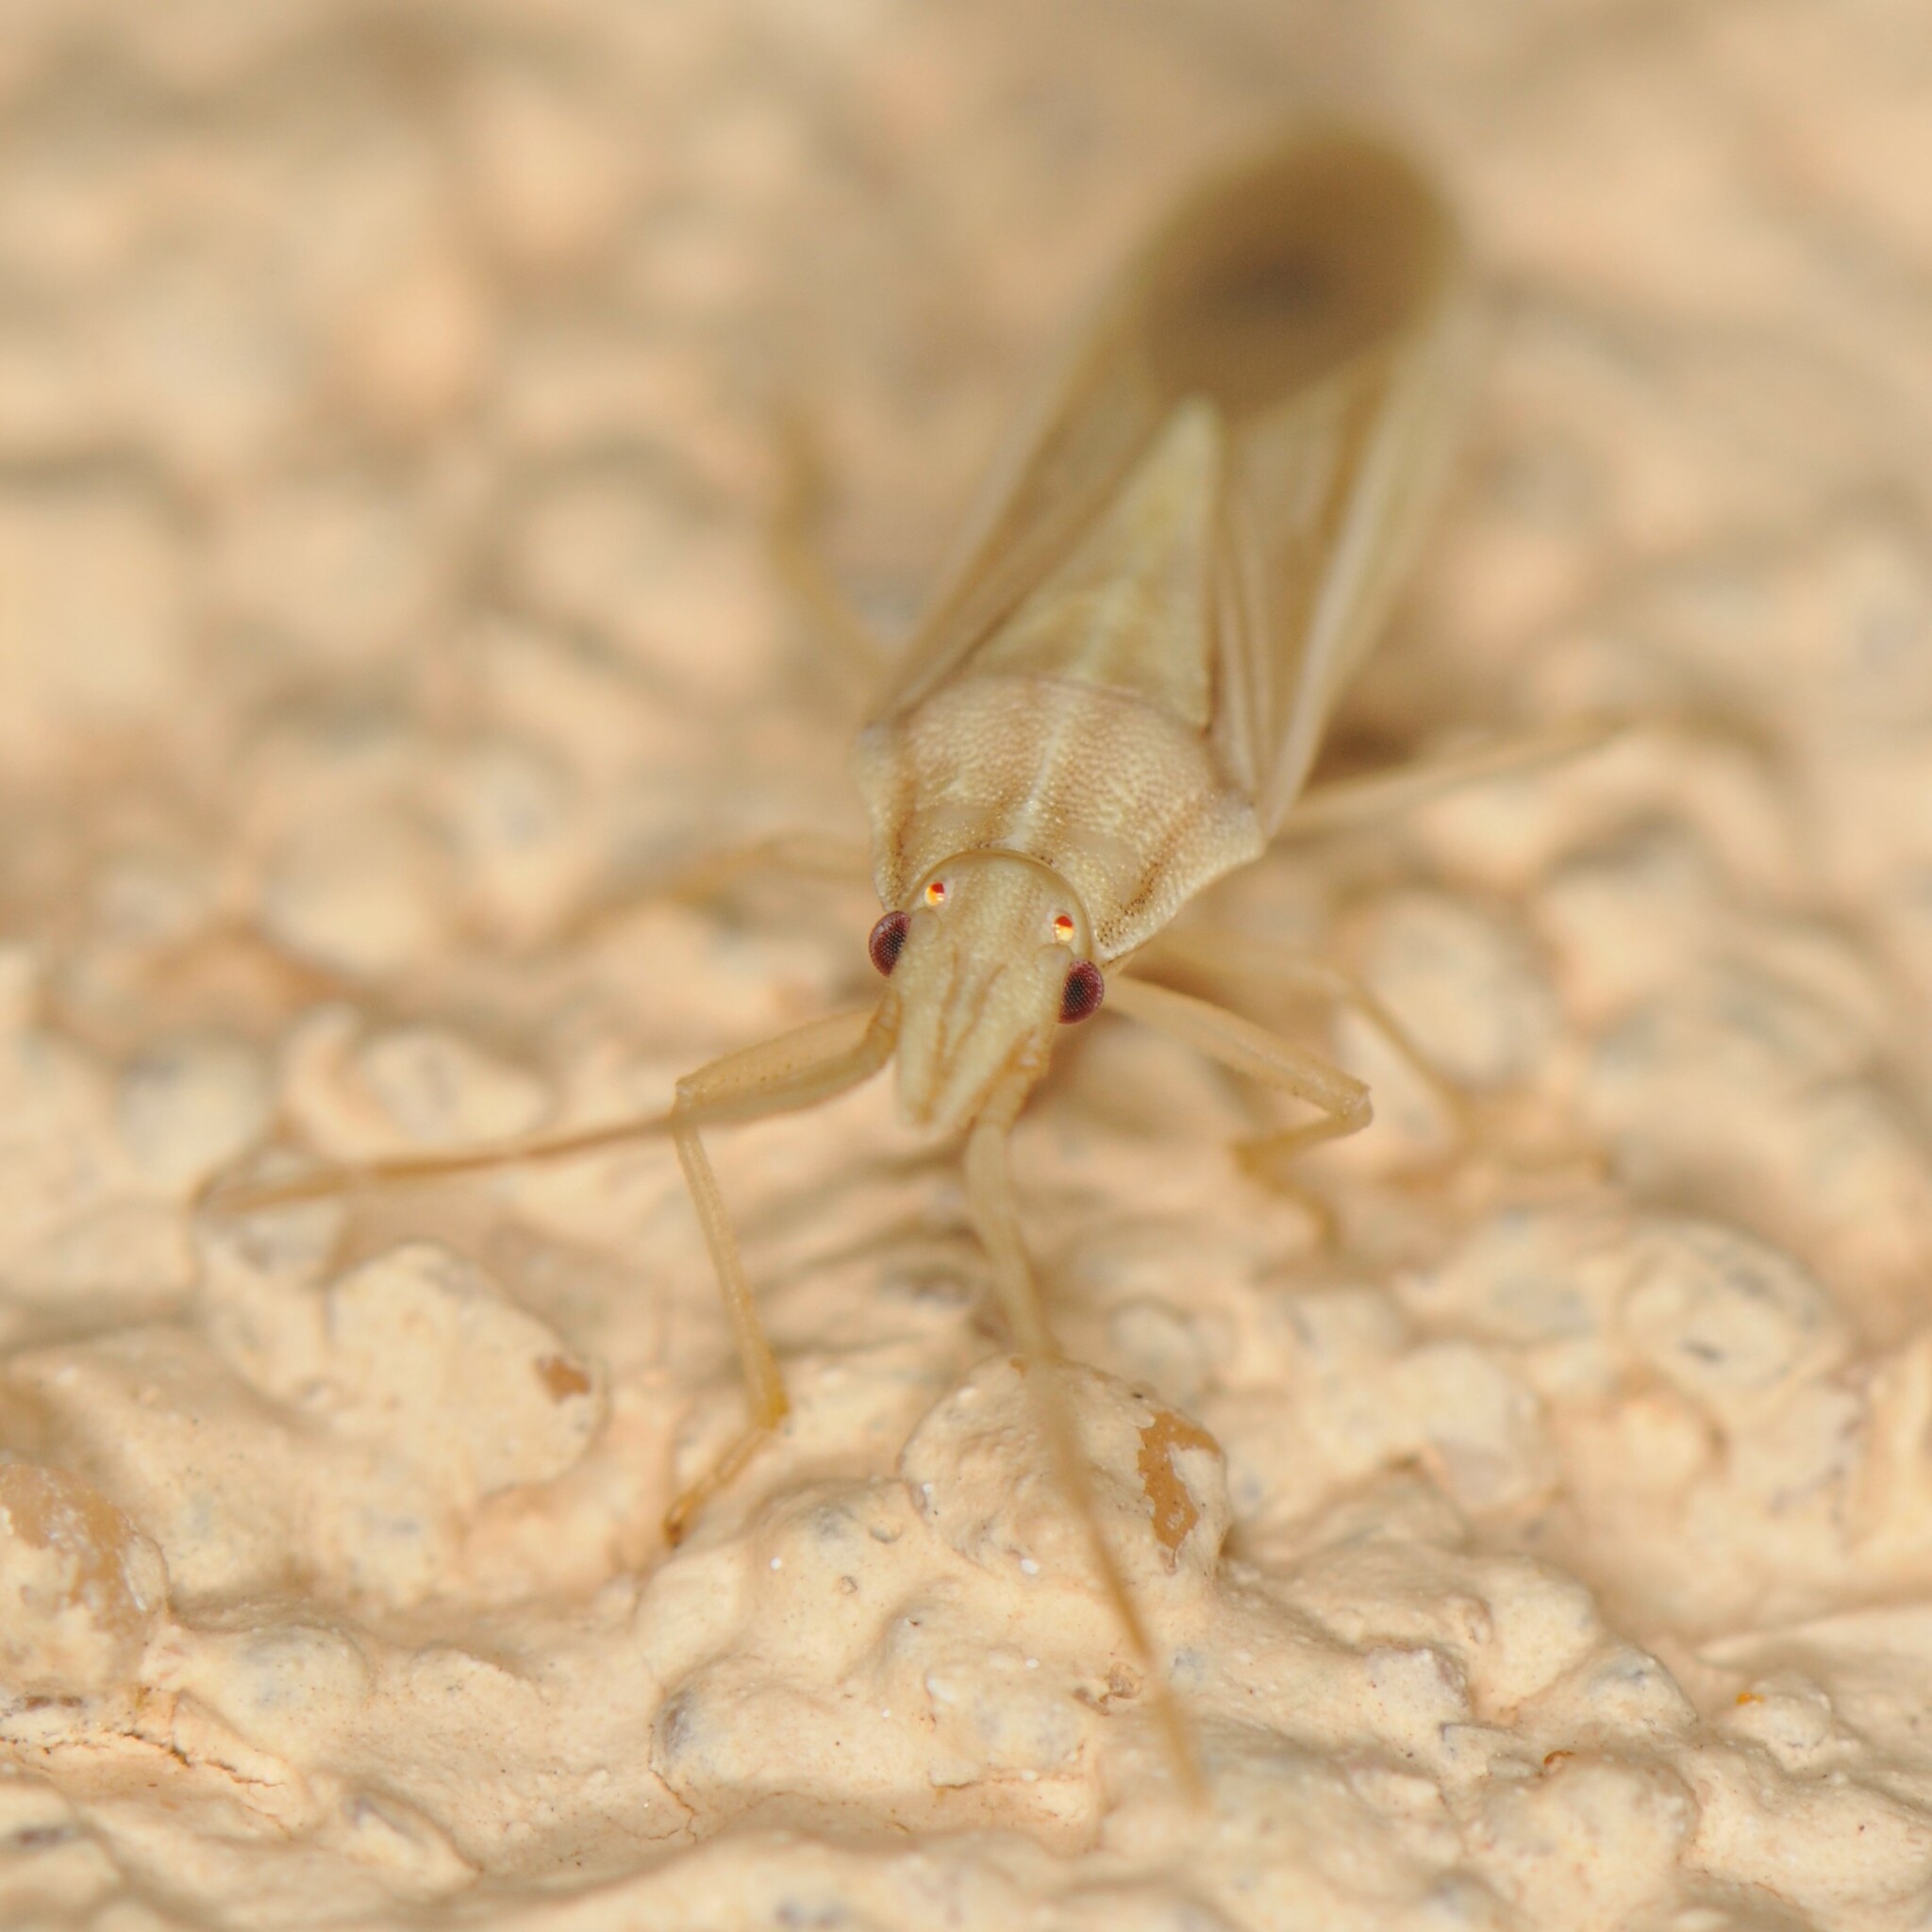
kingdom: Animalia
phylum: Arthropoda
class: Insecta
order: Hemiptera
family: Pentatomidae
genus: Mecidea
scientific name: Mecidea
